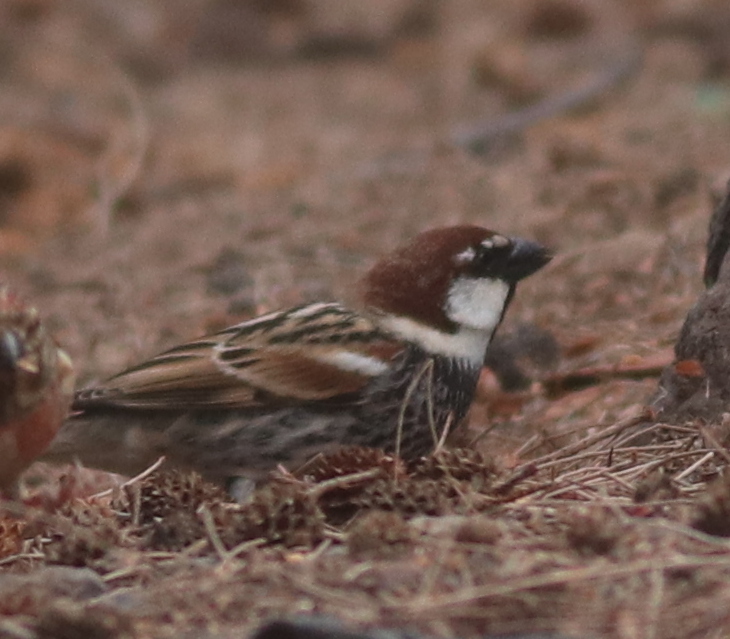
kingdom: Animalia
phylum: Chordata
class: Aves
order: Passeriformes
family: Passeridae
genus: Passer
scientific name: Passer hispaniolensis
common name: Spanish sparrow
